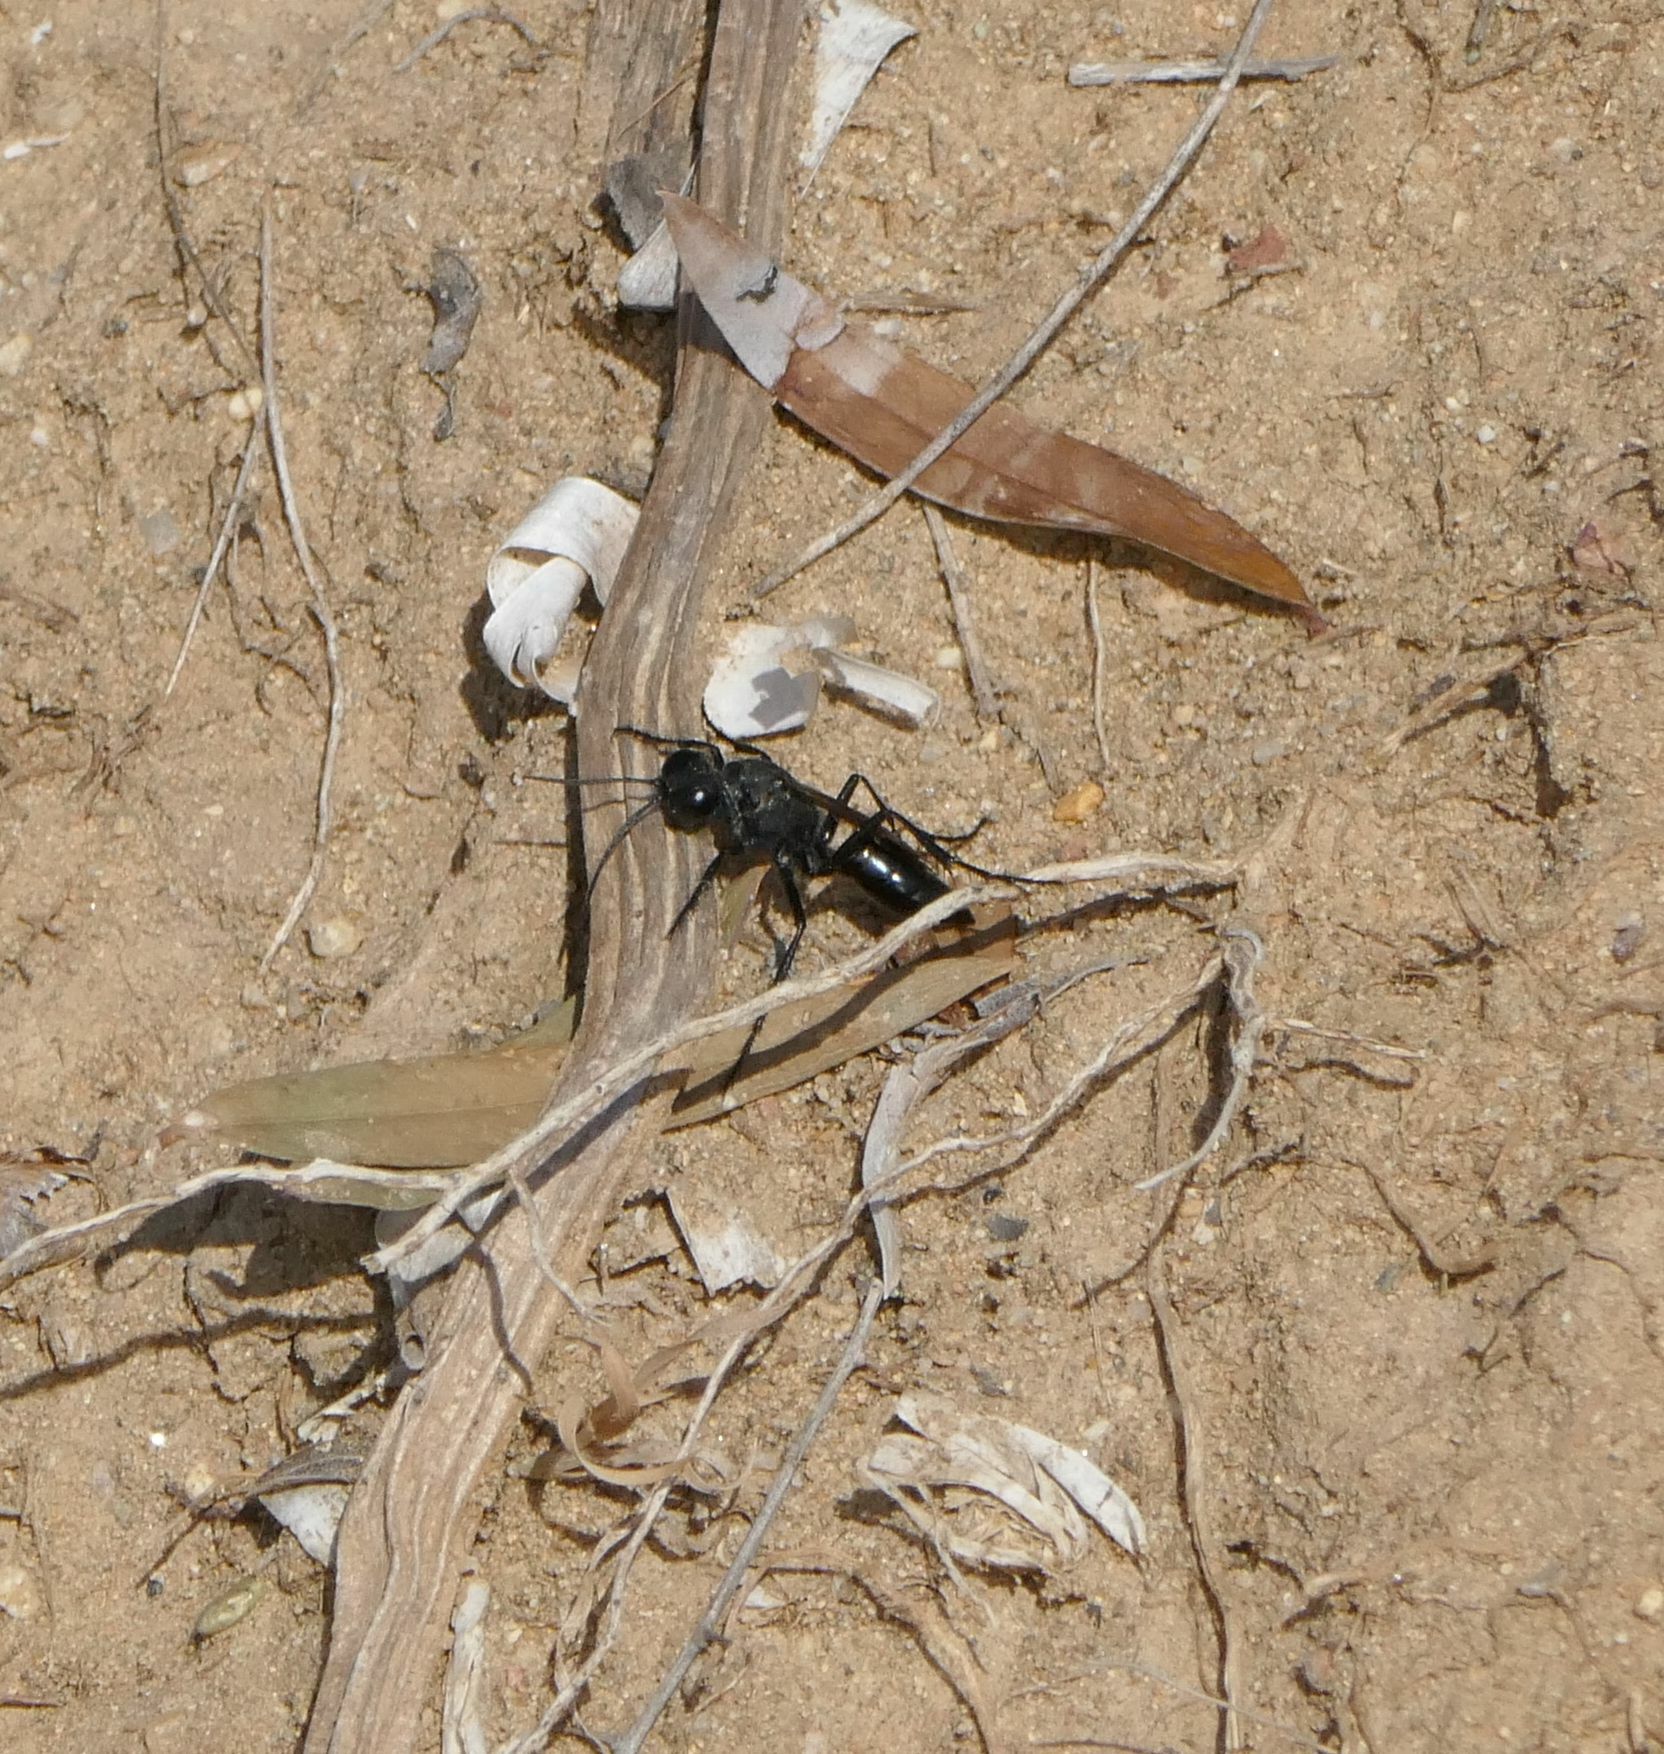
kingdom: Animalia
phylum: Arthropoda
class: Insecta
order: Hymenoptera
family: Sphecidae
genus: Isodontia
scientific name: Isodontia mexicana
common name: Mud dauber
